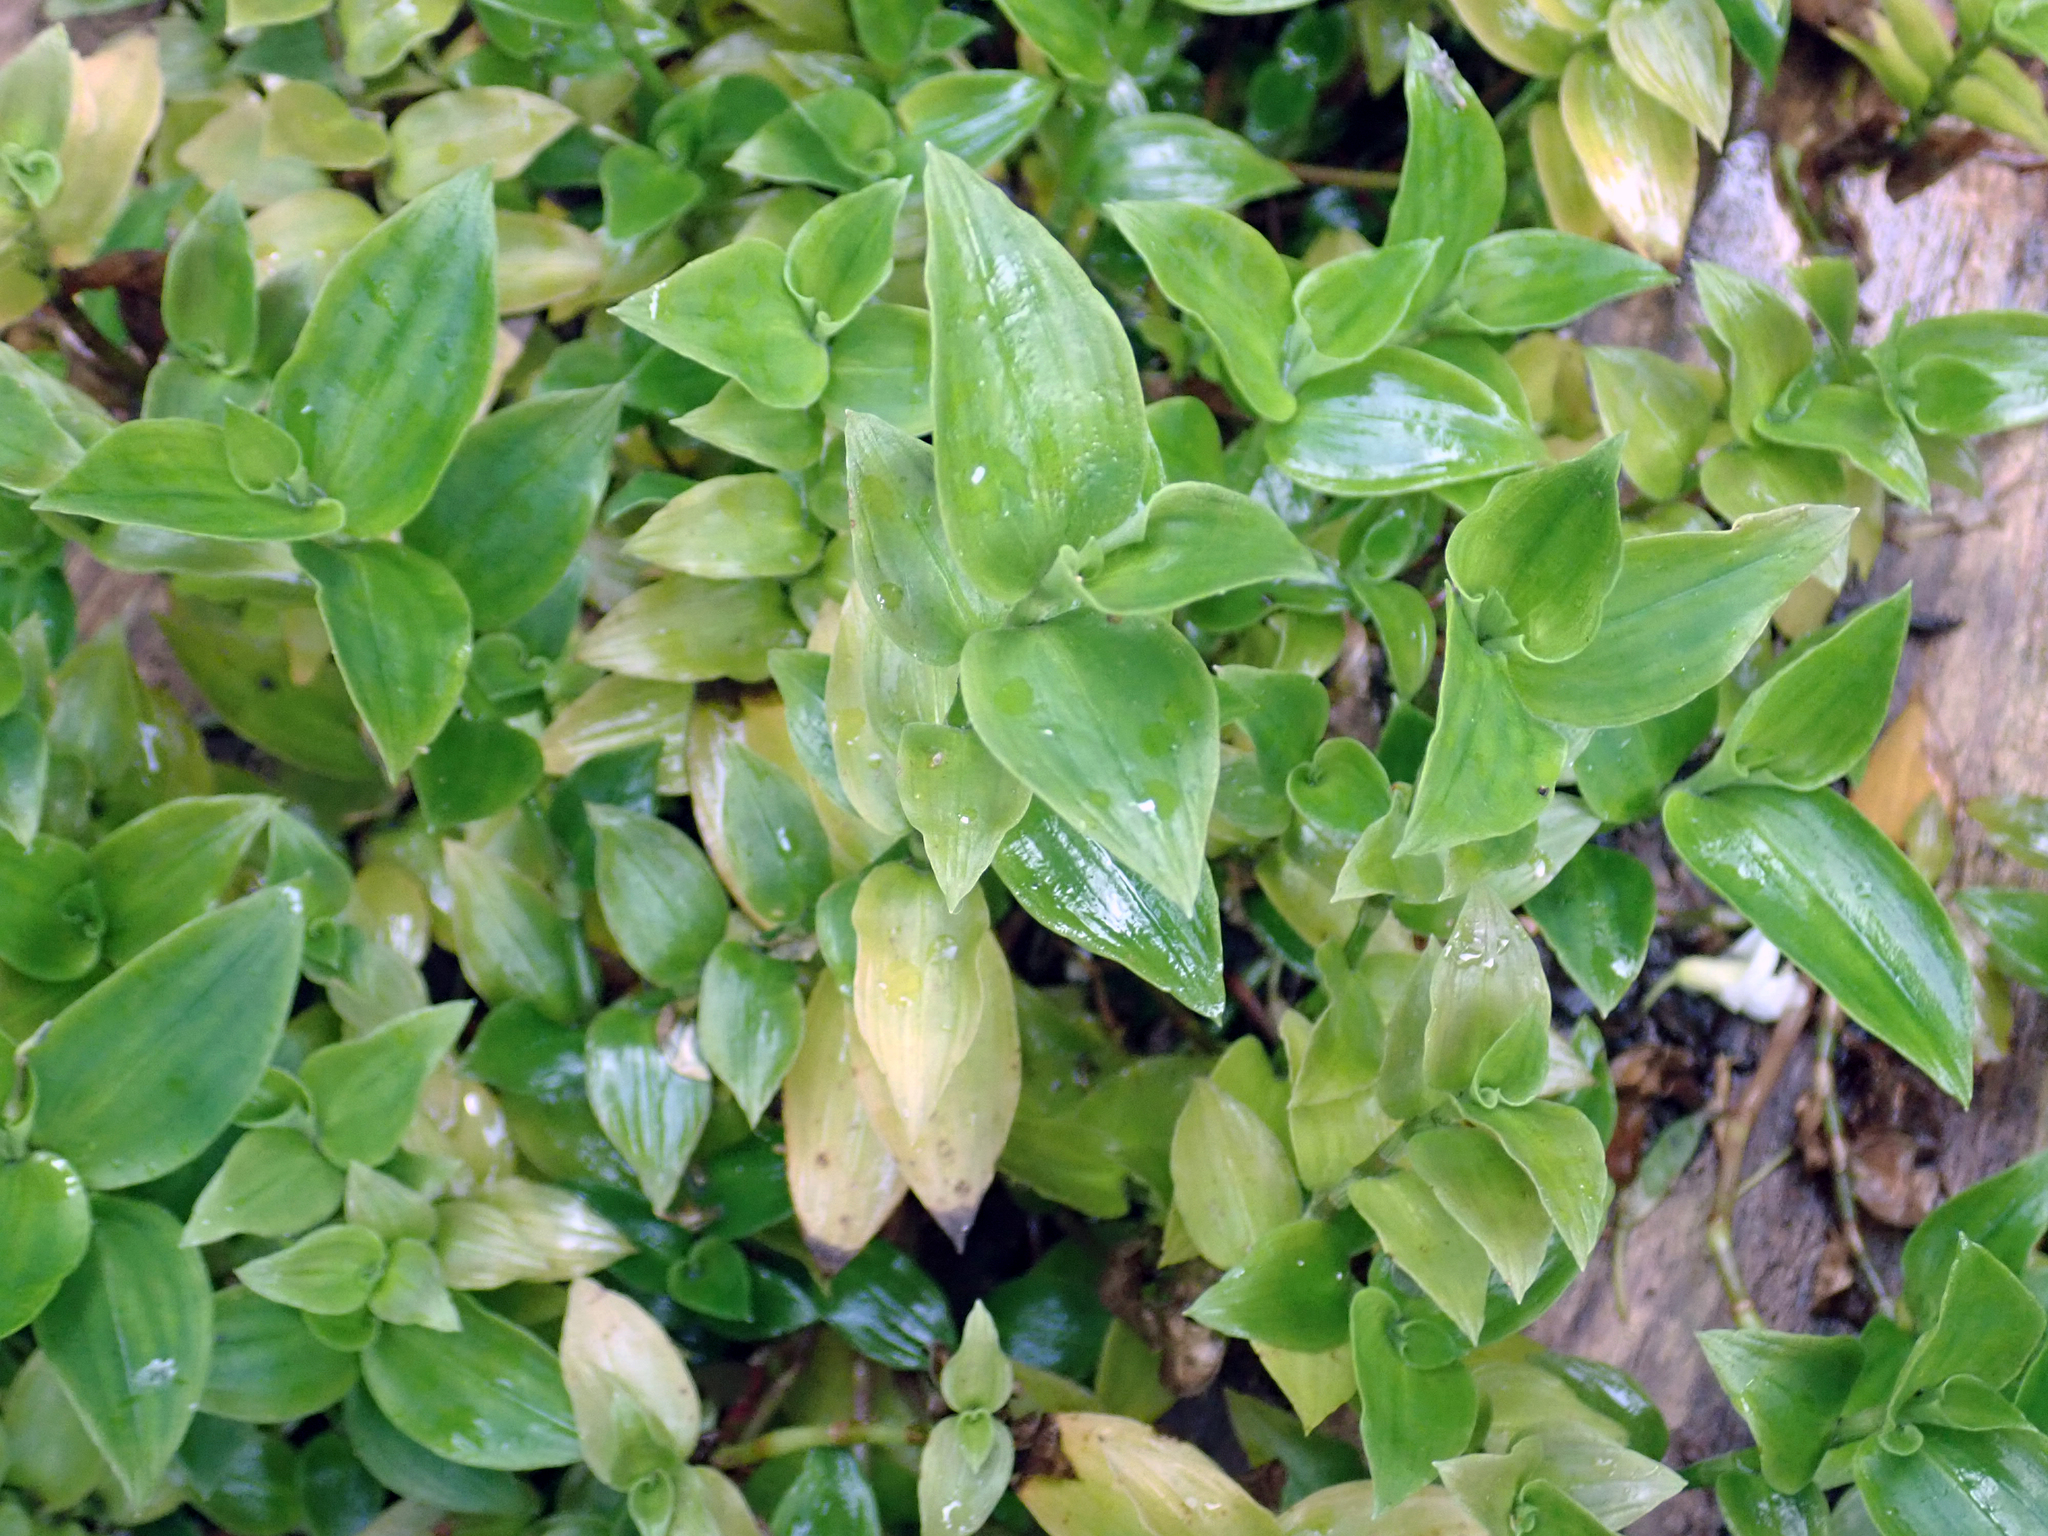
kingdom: Plantae
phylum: Tracheophyta
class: Liliopsida
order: Commelinales
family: Commelinaceae
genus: Tradescantia
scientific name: Tradescantia fluminensis
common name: Wandering-jew
